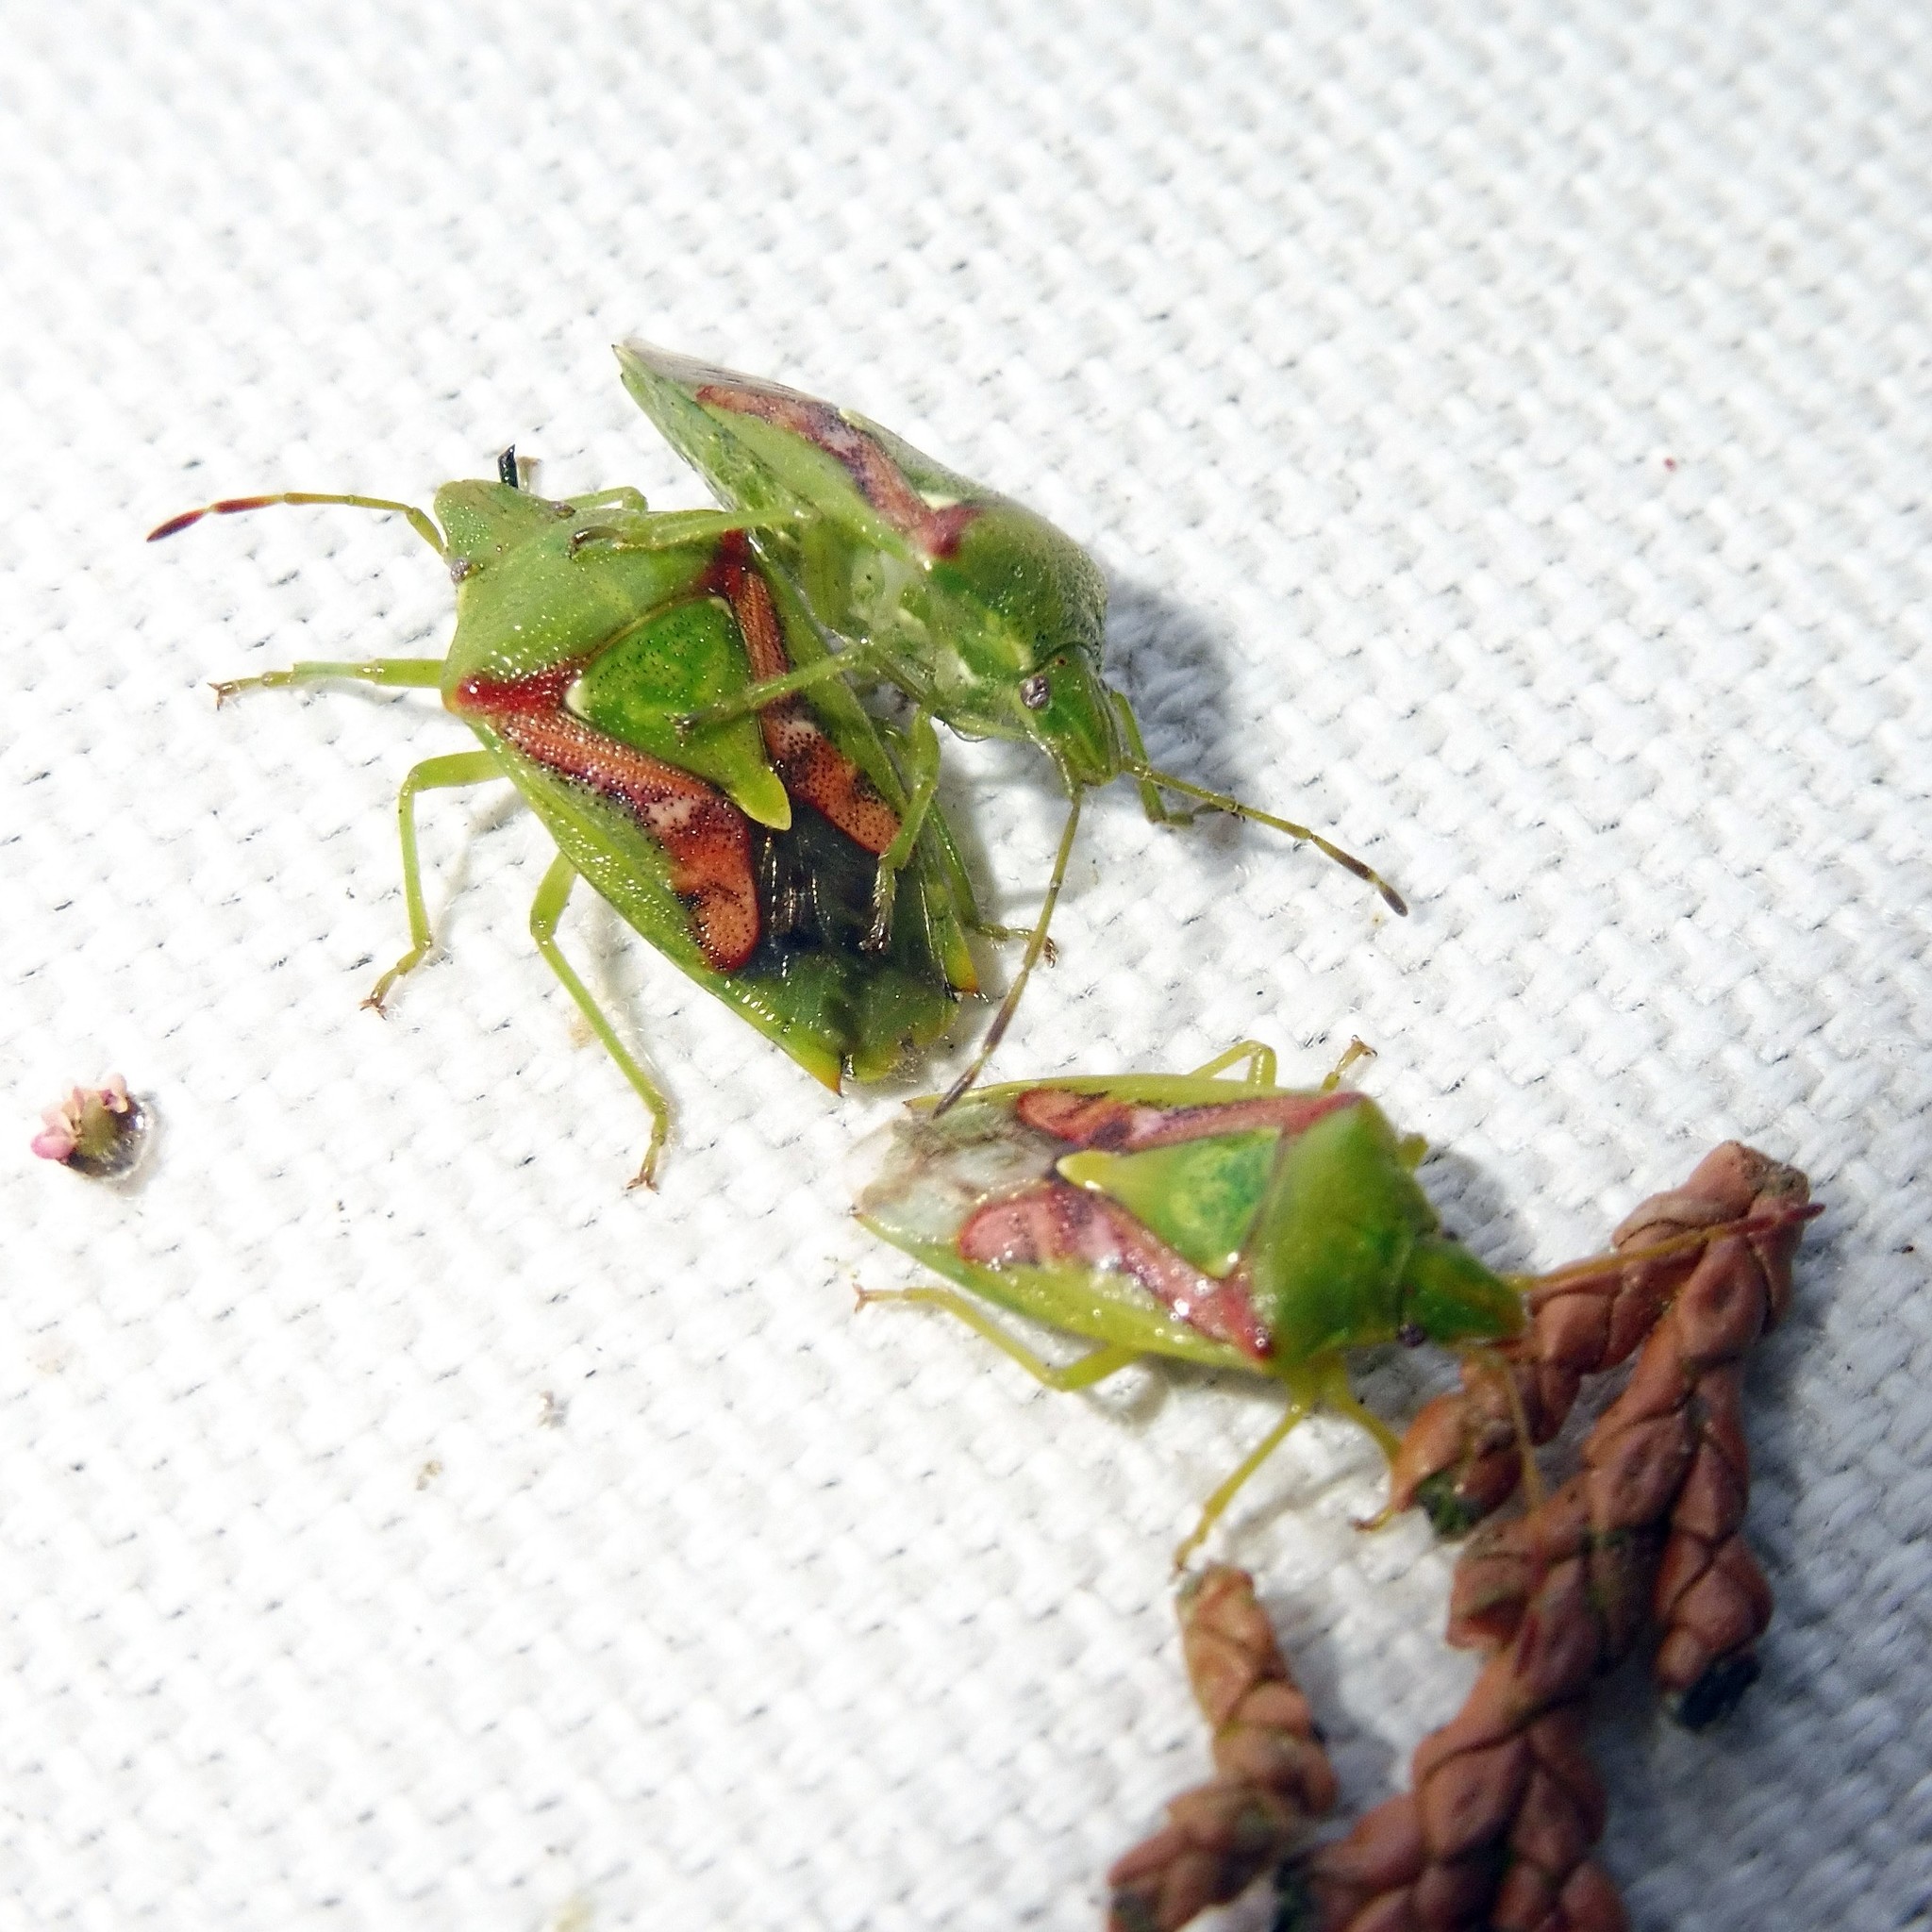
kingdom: Animalia
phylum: Arthropoda
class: Insecta
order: Hemiptera
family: Acanthosomatidae
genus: Cyphostethus
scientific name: Cyphostethus tristriatus
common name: Juniper shieldbug
